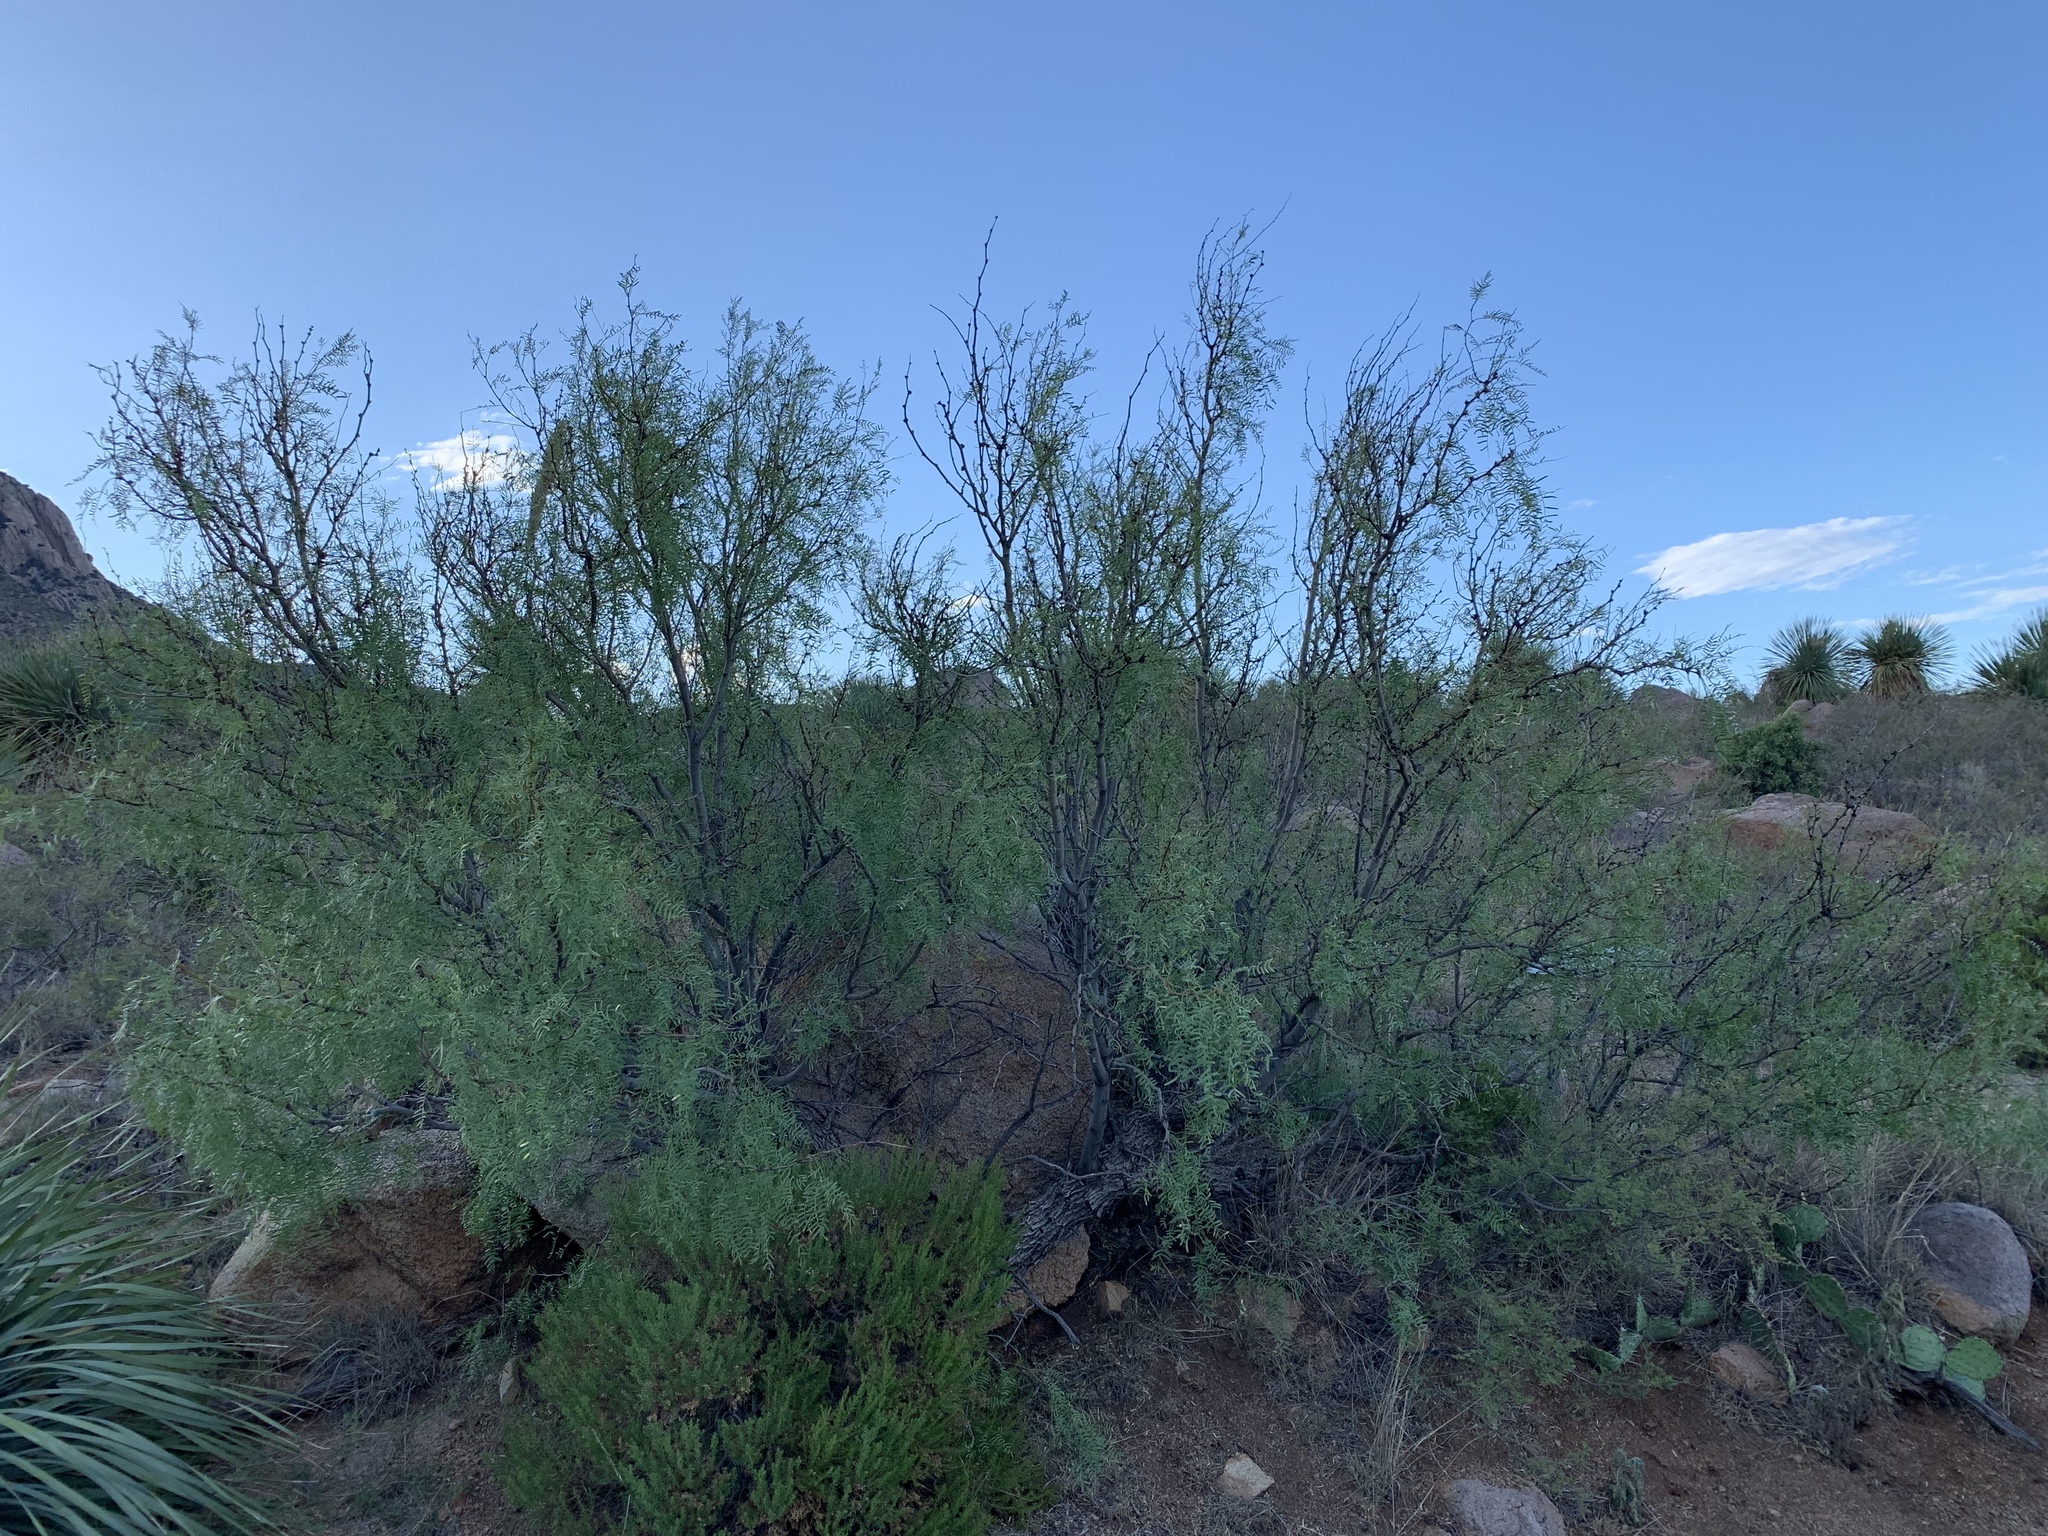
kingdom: Plantae
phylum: Tracheophyta
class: Magnoliopsida
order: Fabales
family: Fabaceae
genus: Prosopis
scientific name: Prosopis glandulosa
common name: Honey mesquite
